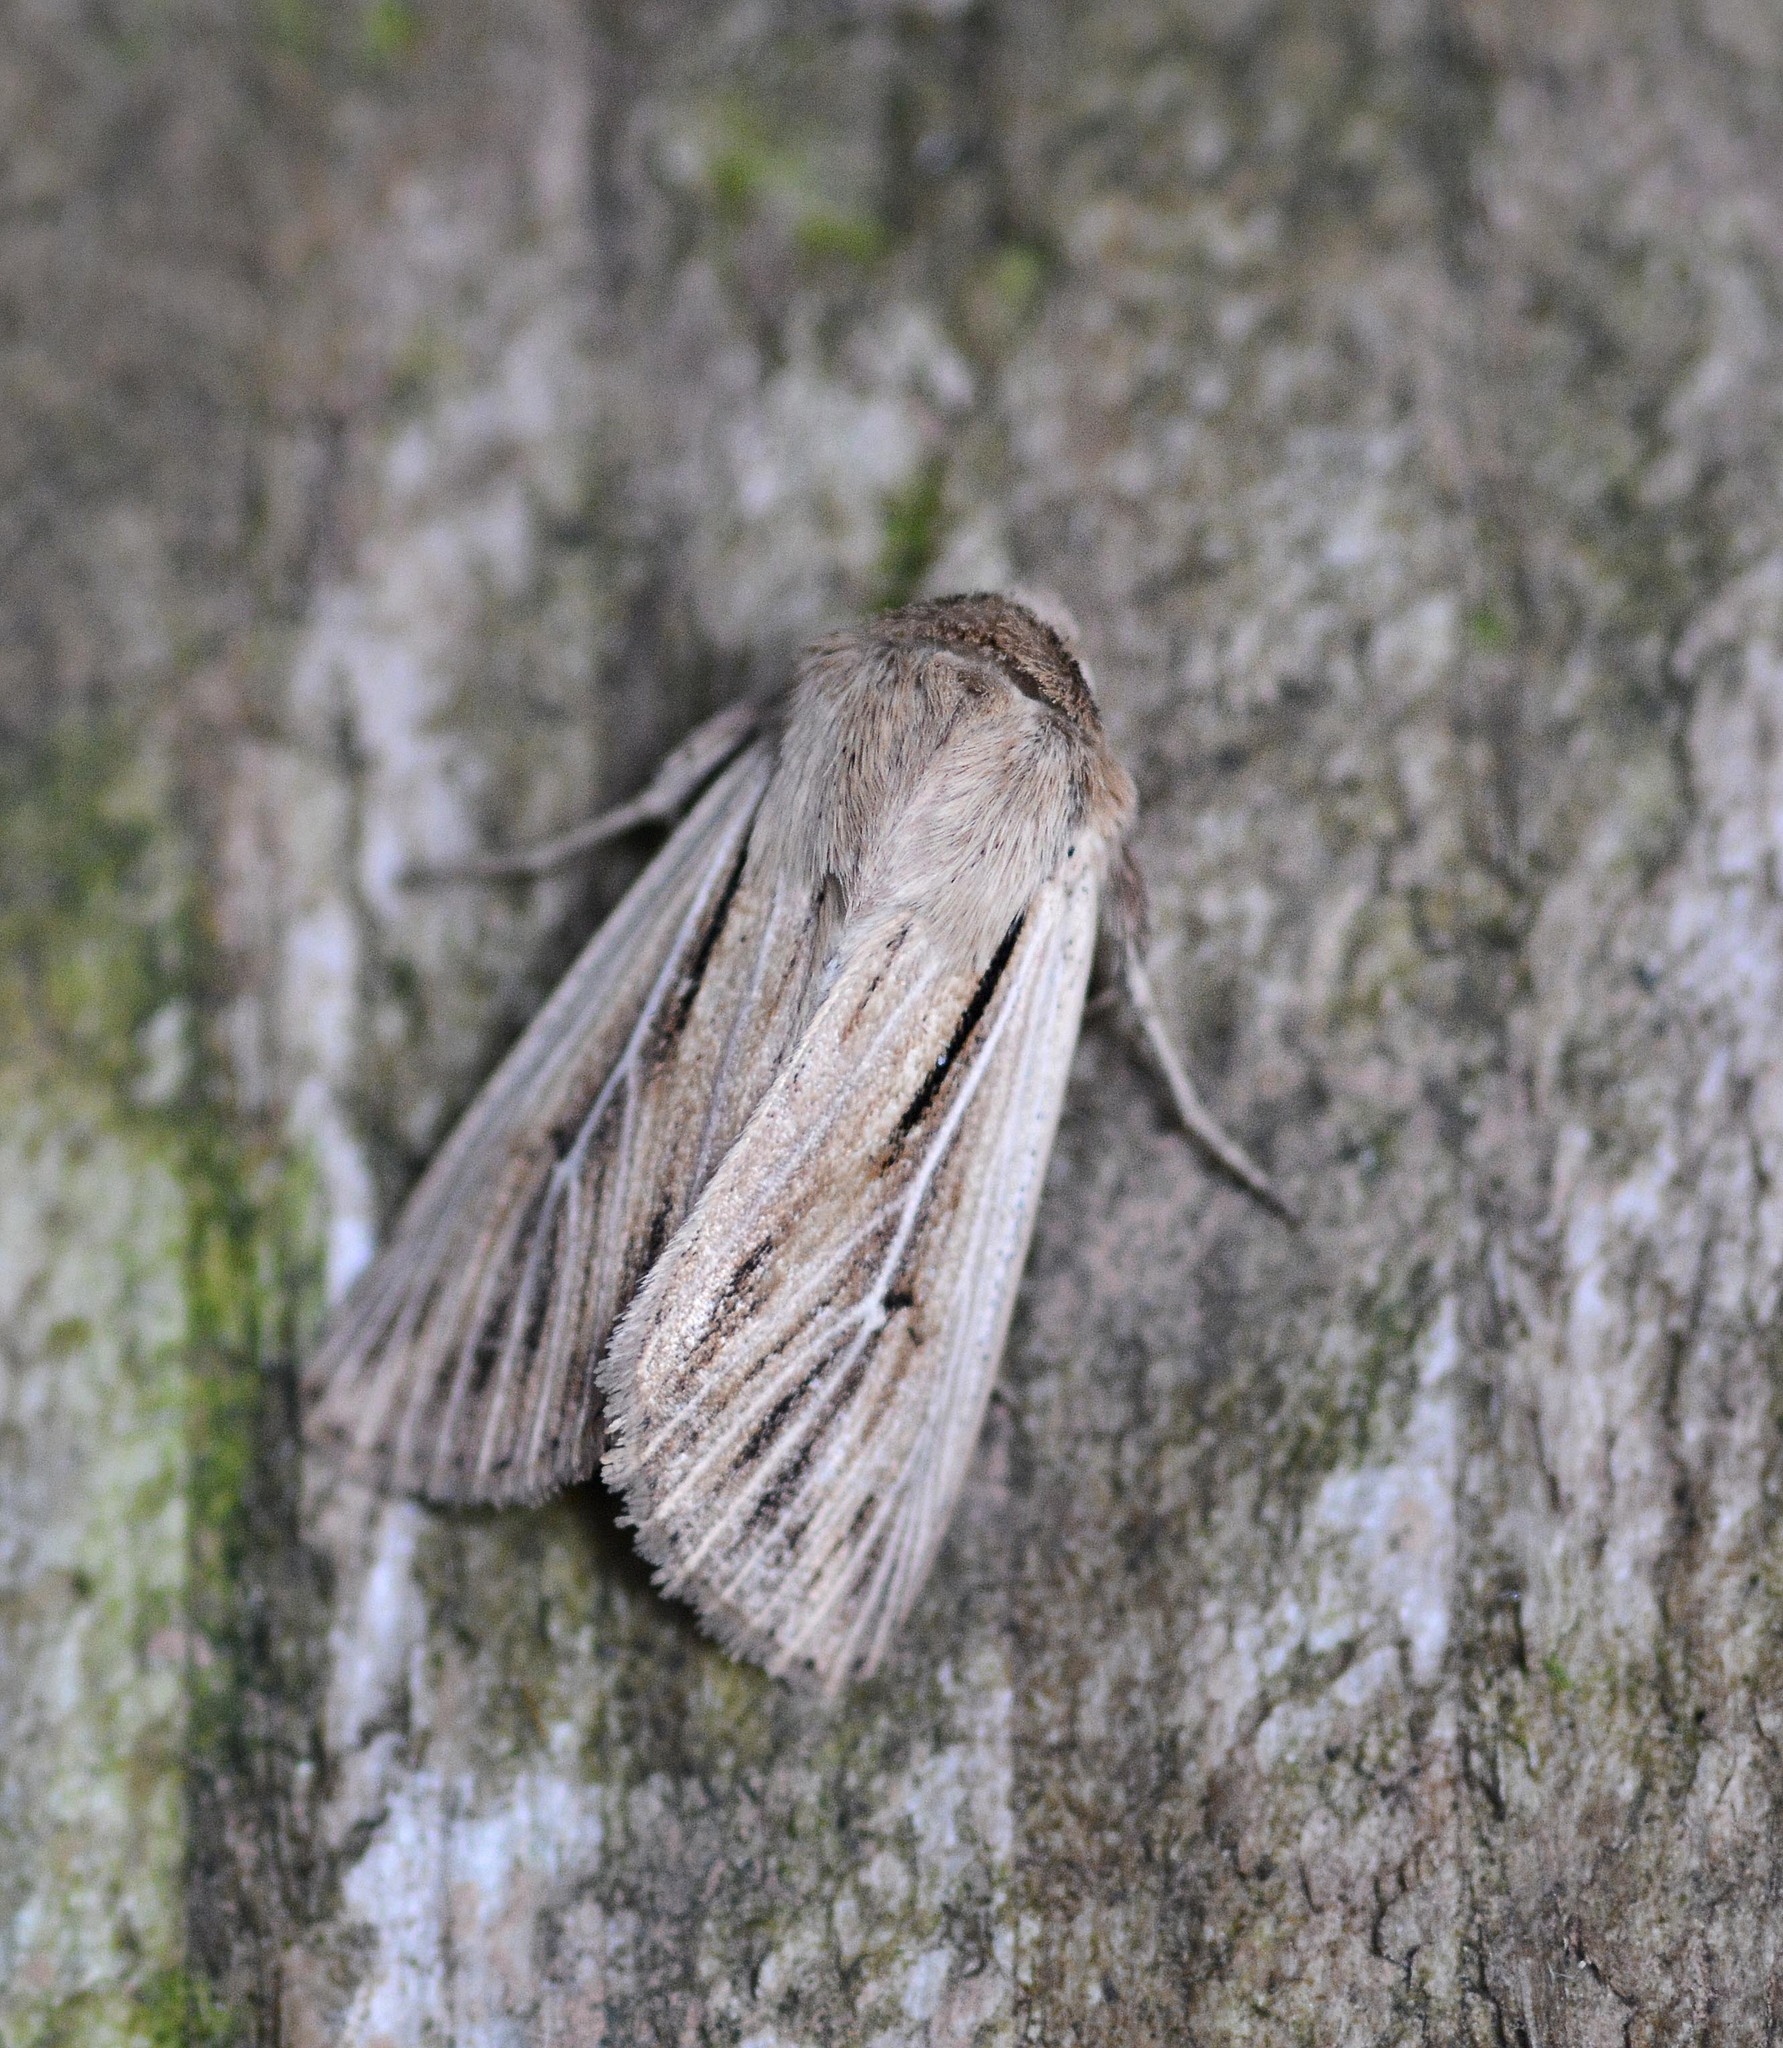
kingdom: Animalia
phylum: Arthropoda
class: Insecta
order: Lepidoptera
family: Noctuidae
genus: Leucania
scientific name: Leucania comma
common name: Shoulder-striped wainscot
